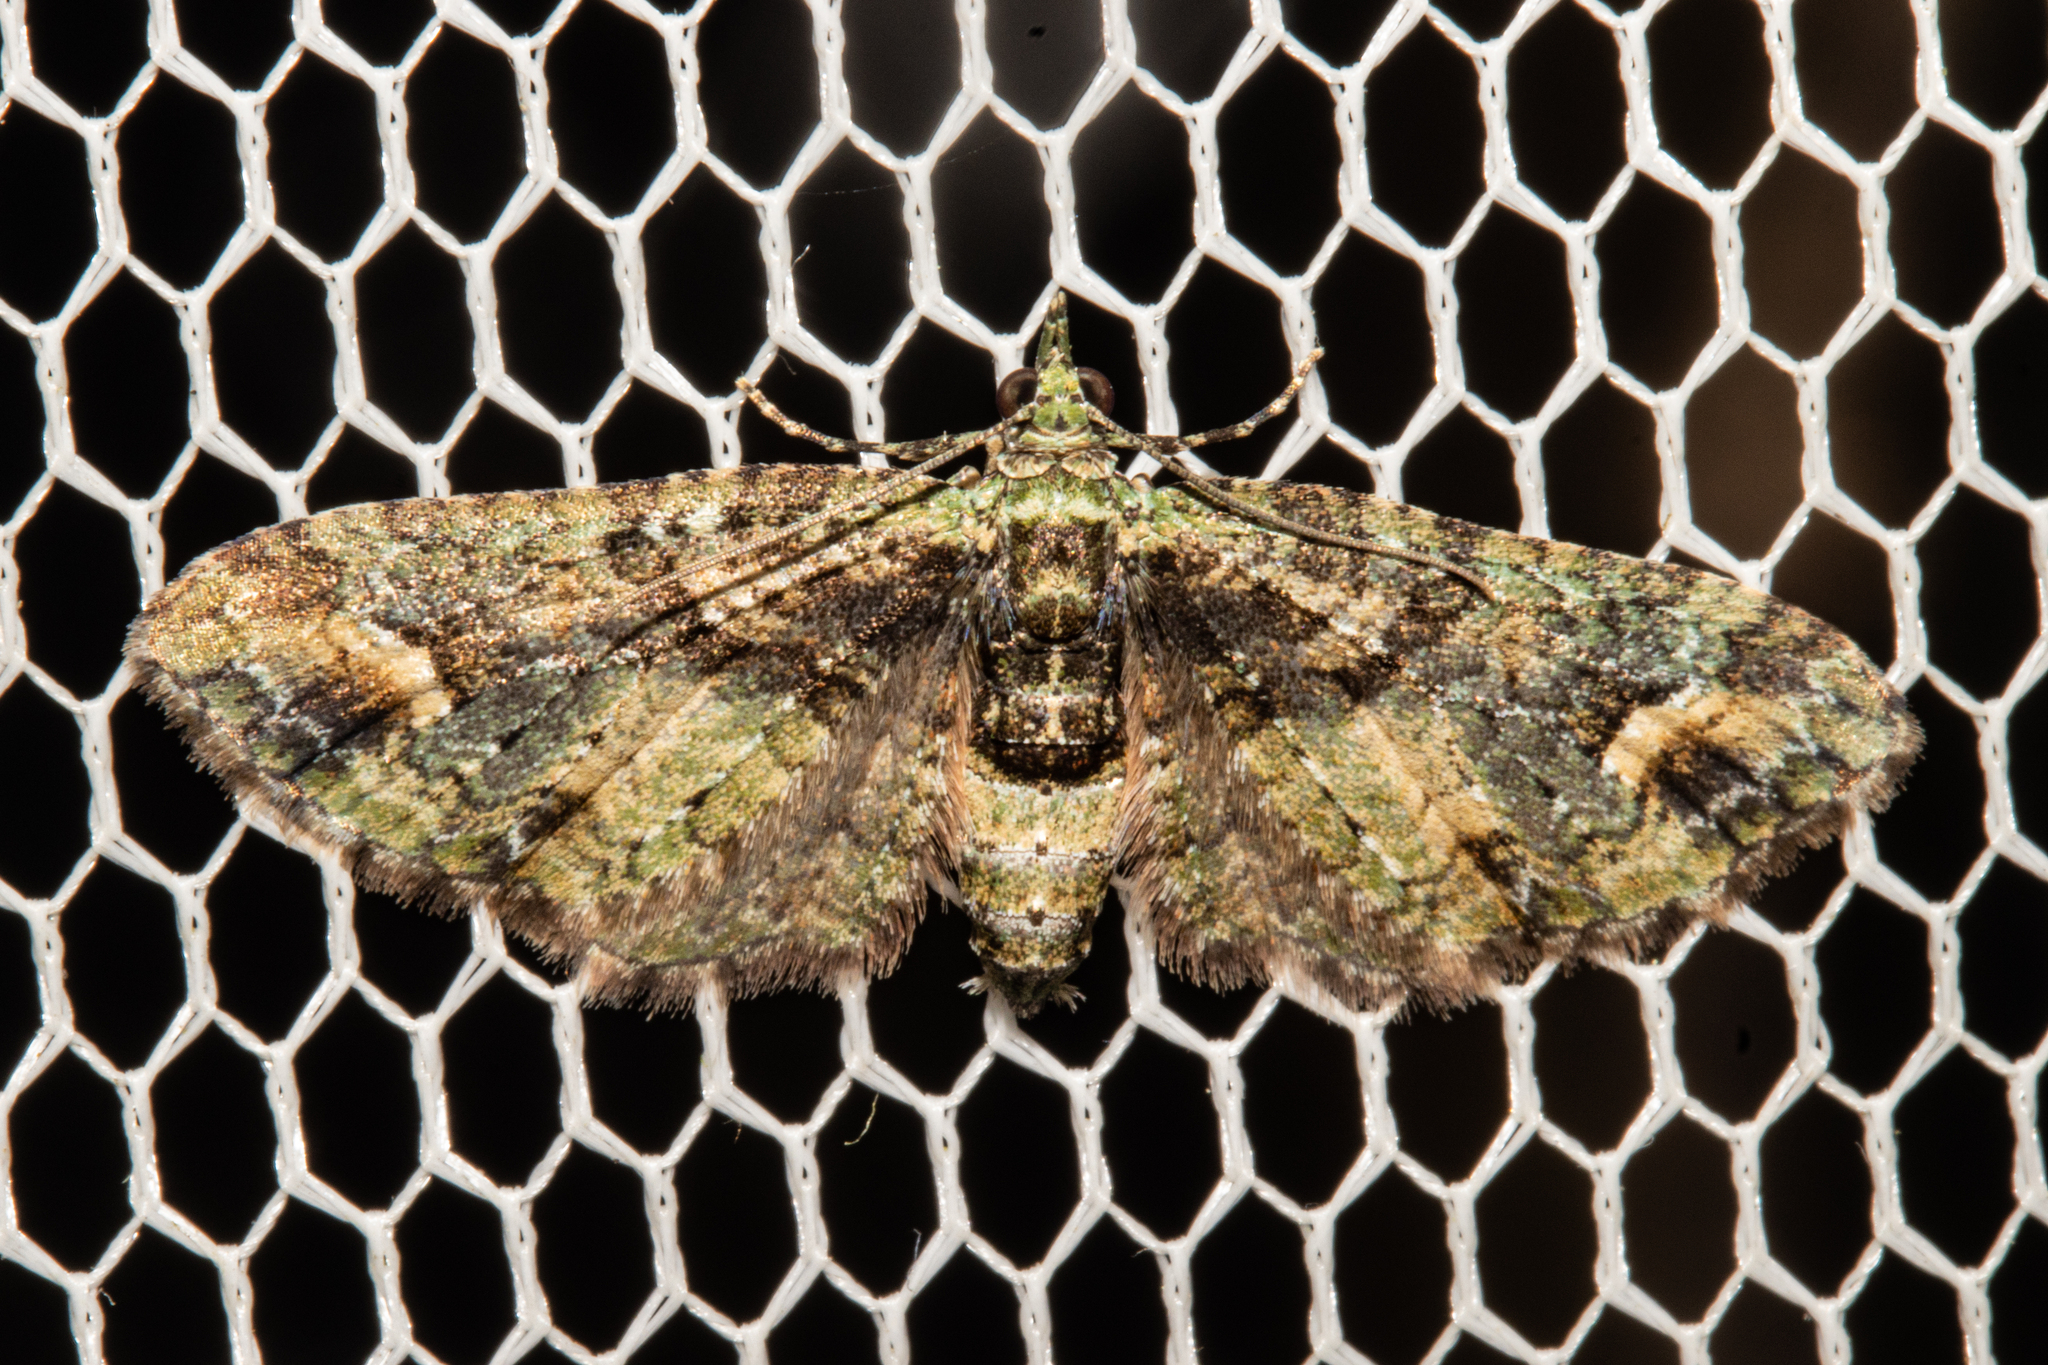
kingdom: Animalia
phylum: Arthropoda
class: Insecta
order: Lepidoptera
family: Geometridae
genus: Idaea
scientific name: Idaea mutanda
